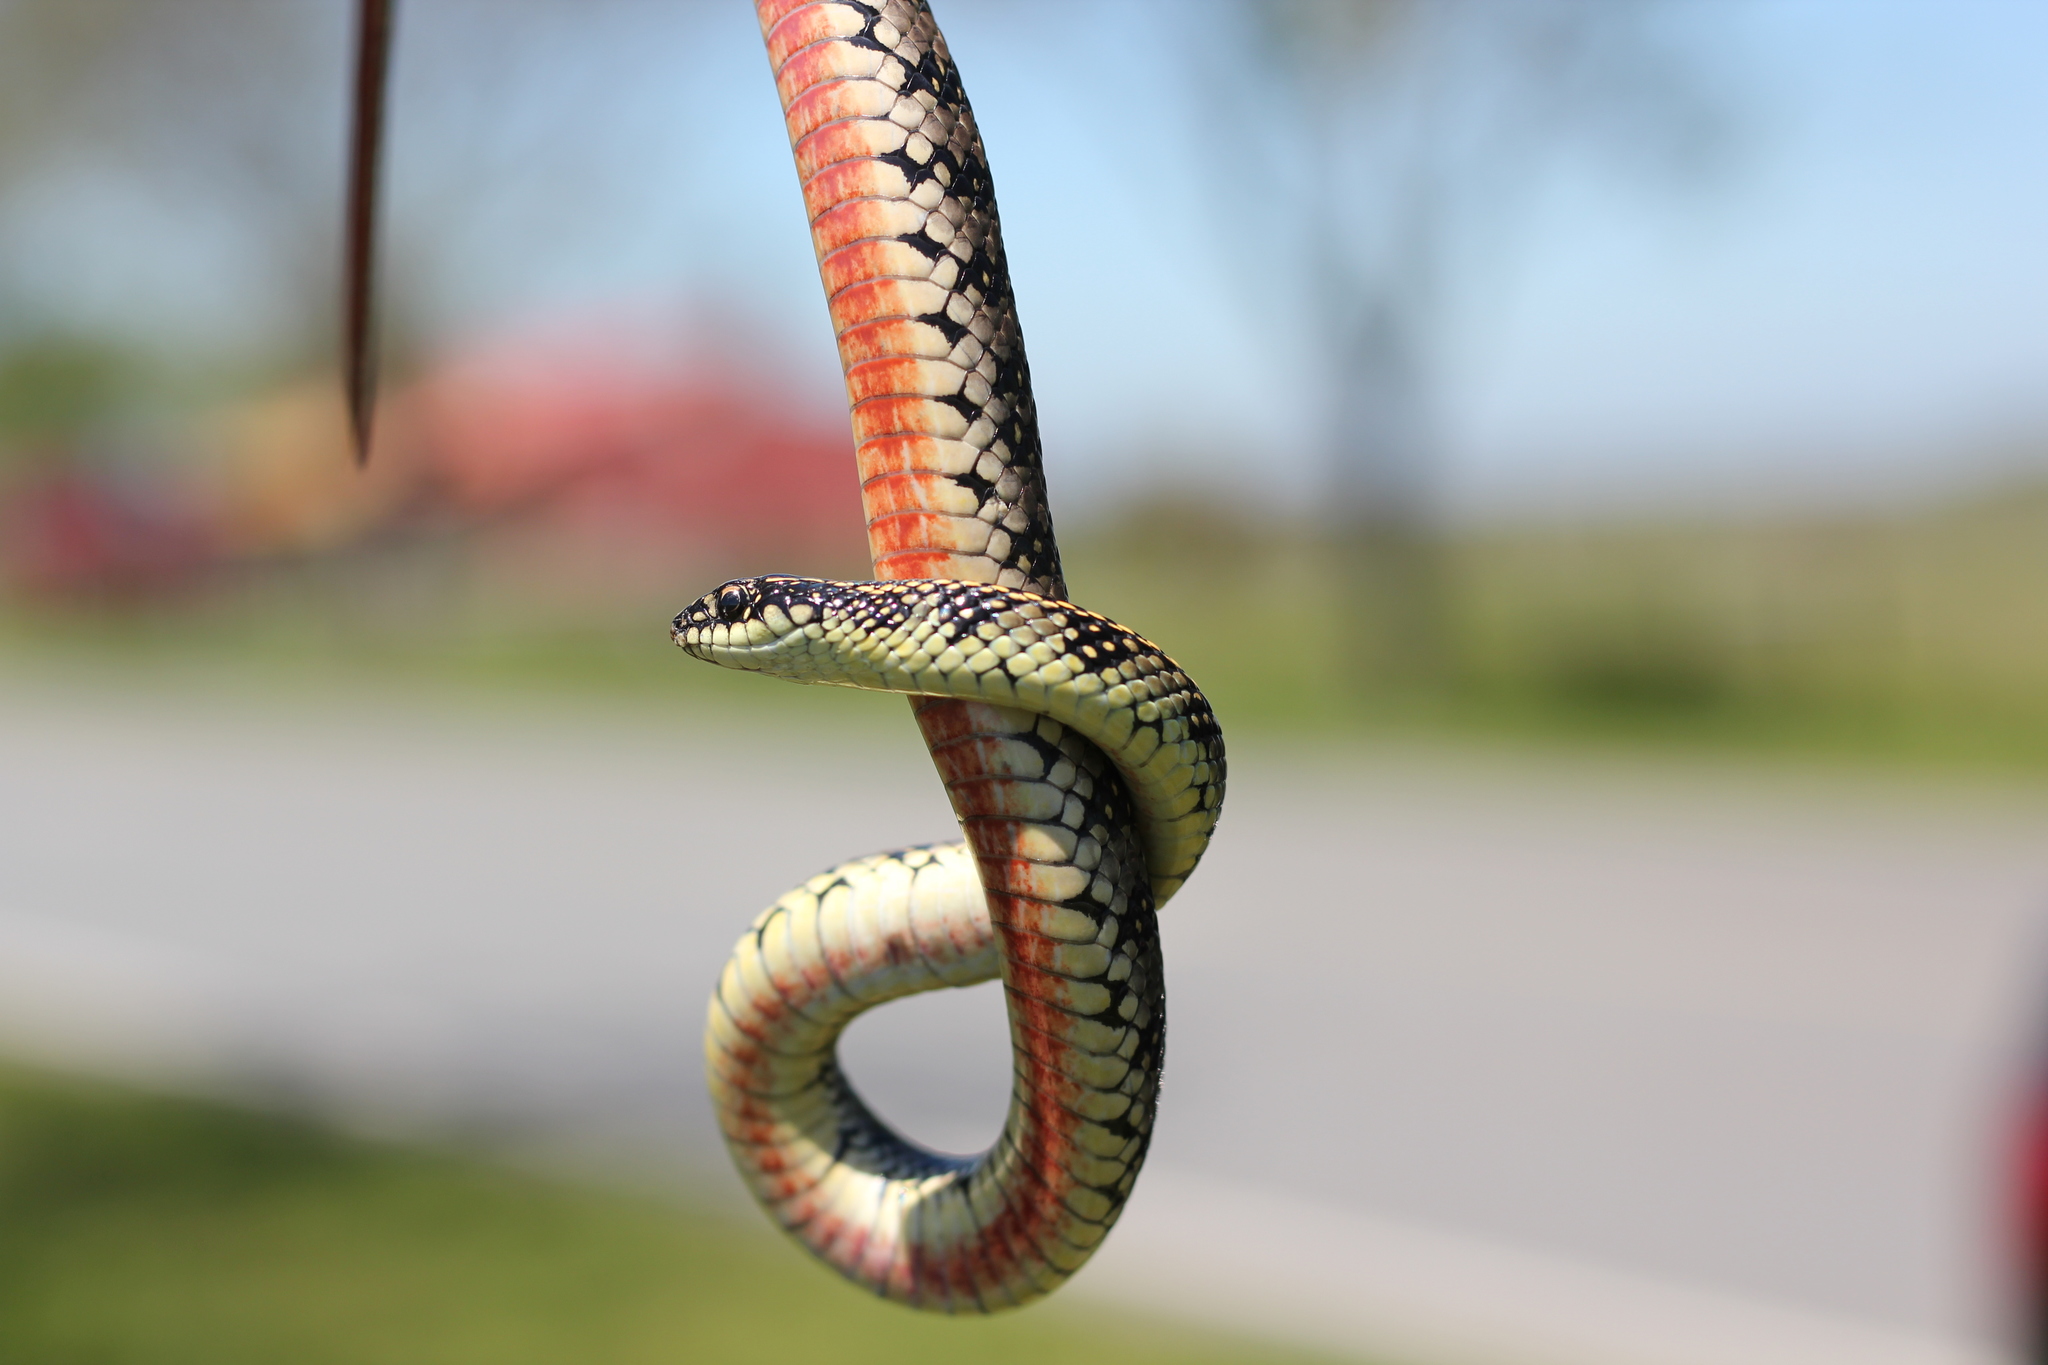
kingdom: Animalia
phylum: Chordata
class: Squamata
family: Colubridae
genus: Lygophis
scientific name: Lygophis anomalus
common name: English common name not available
